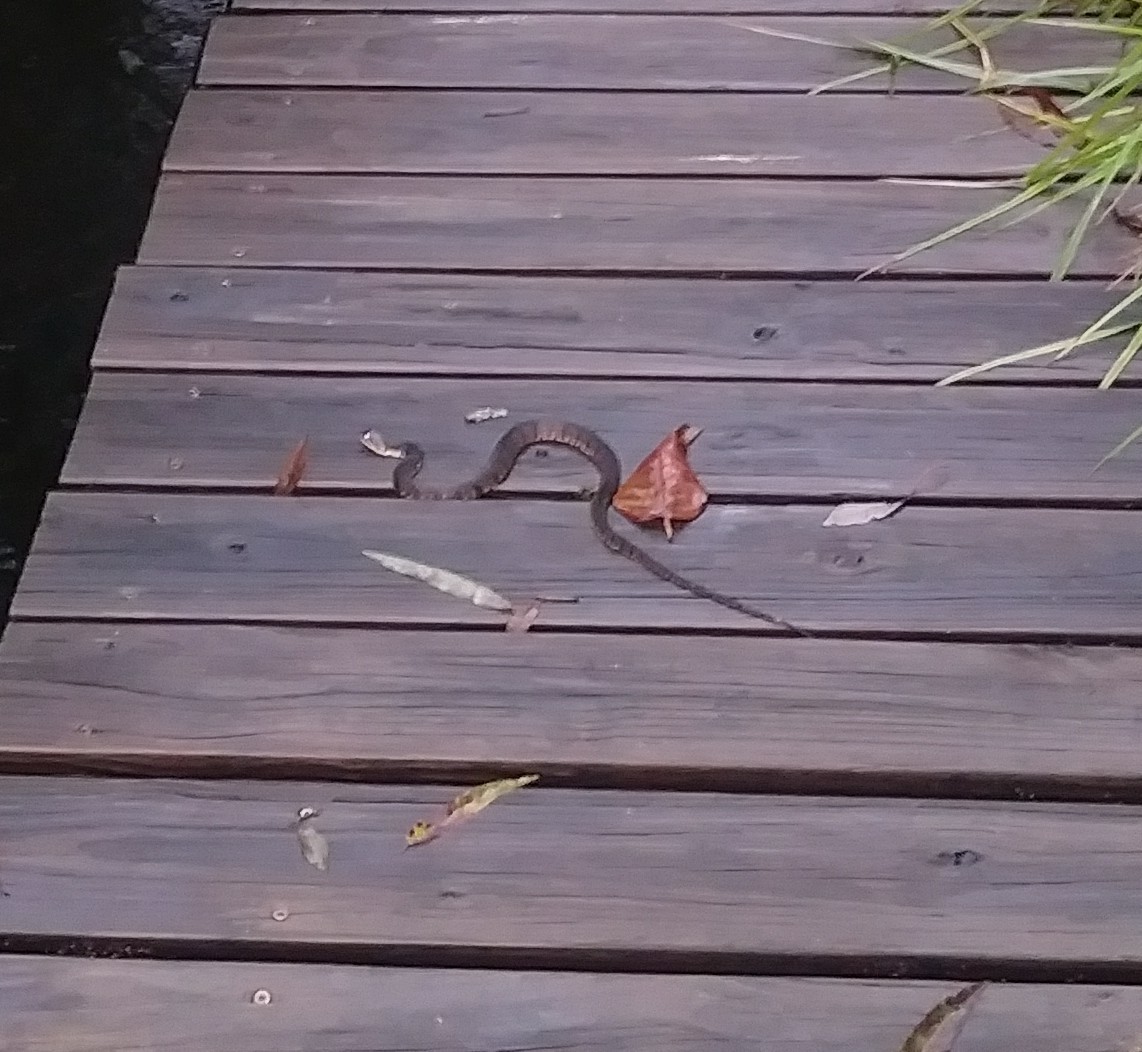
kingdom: Animalia
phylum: Chordata
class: Squamata
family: Colubridae
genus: Nerodia
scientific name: Nerodia fasciata
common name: Southern water snake
